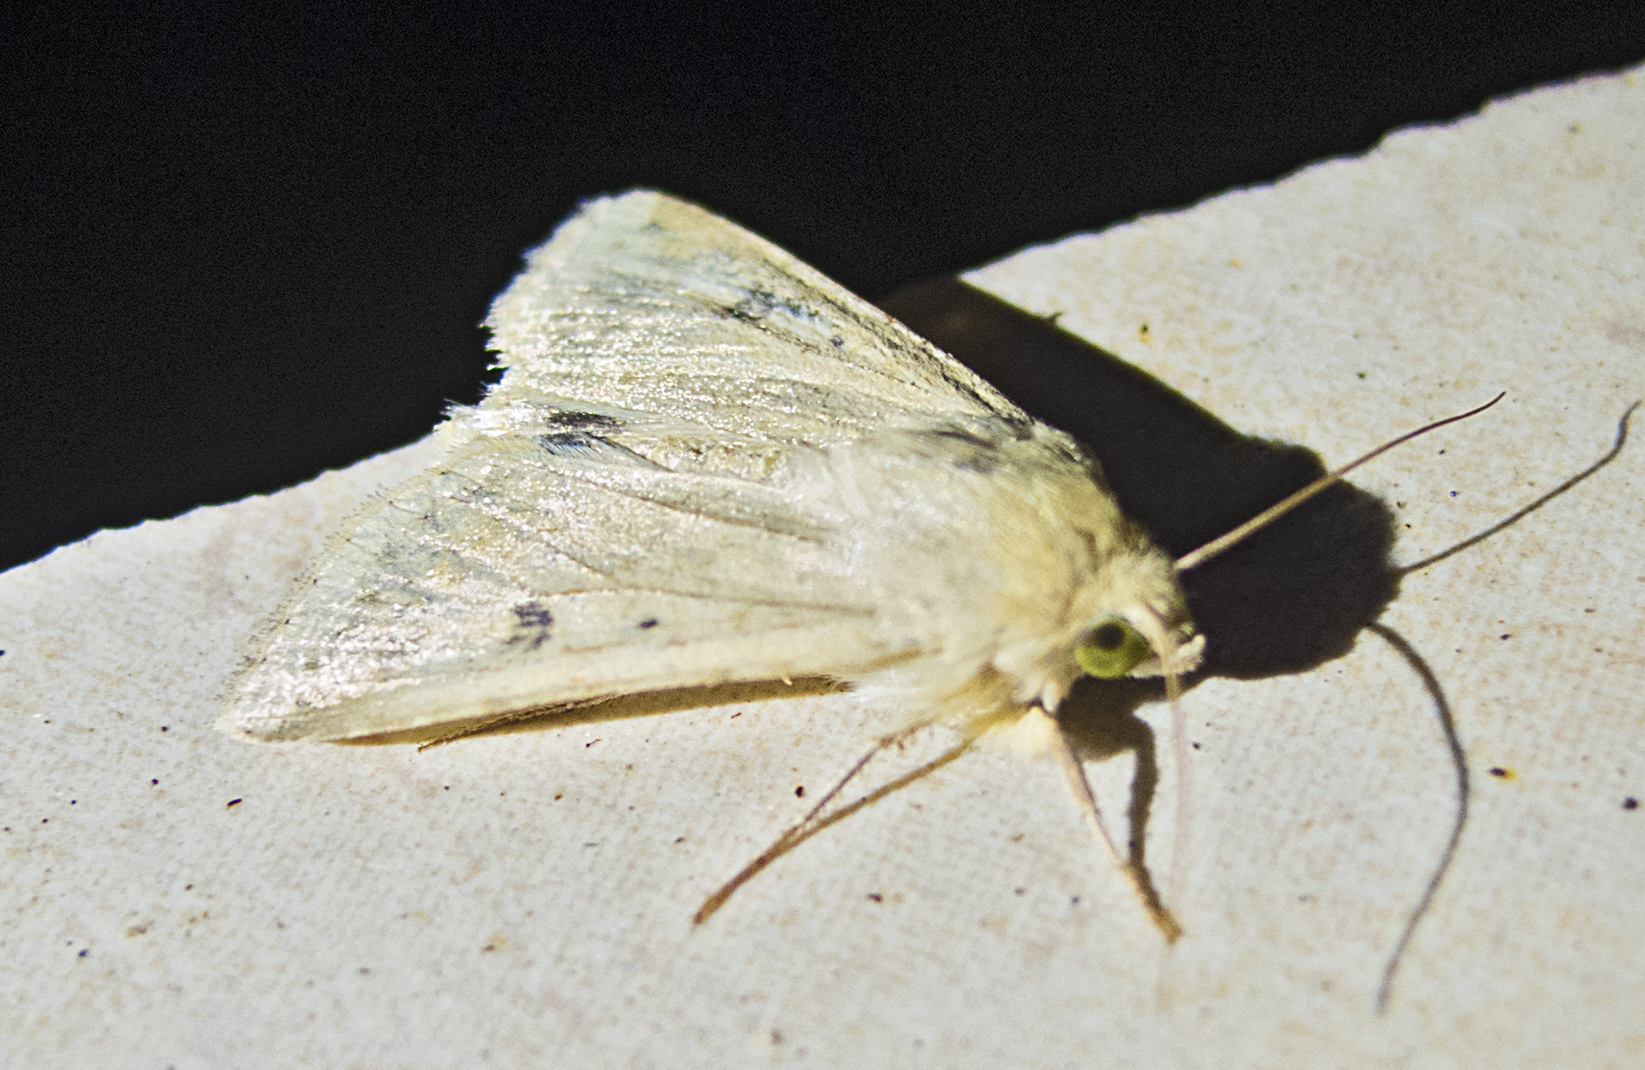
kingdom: Animalia
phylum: Arthropoda
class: Insecta
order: Lepidoptera
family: Noctuidae
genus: Helicoverpa
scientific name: Helicoverpa armigera
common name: Cotton bollworm
